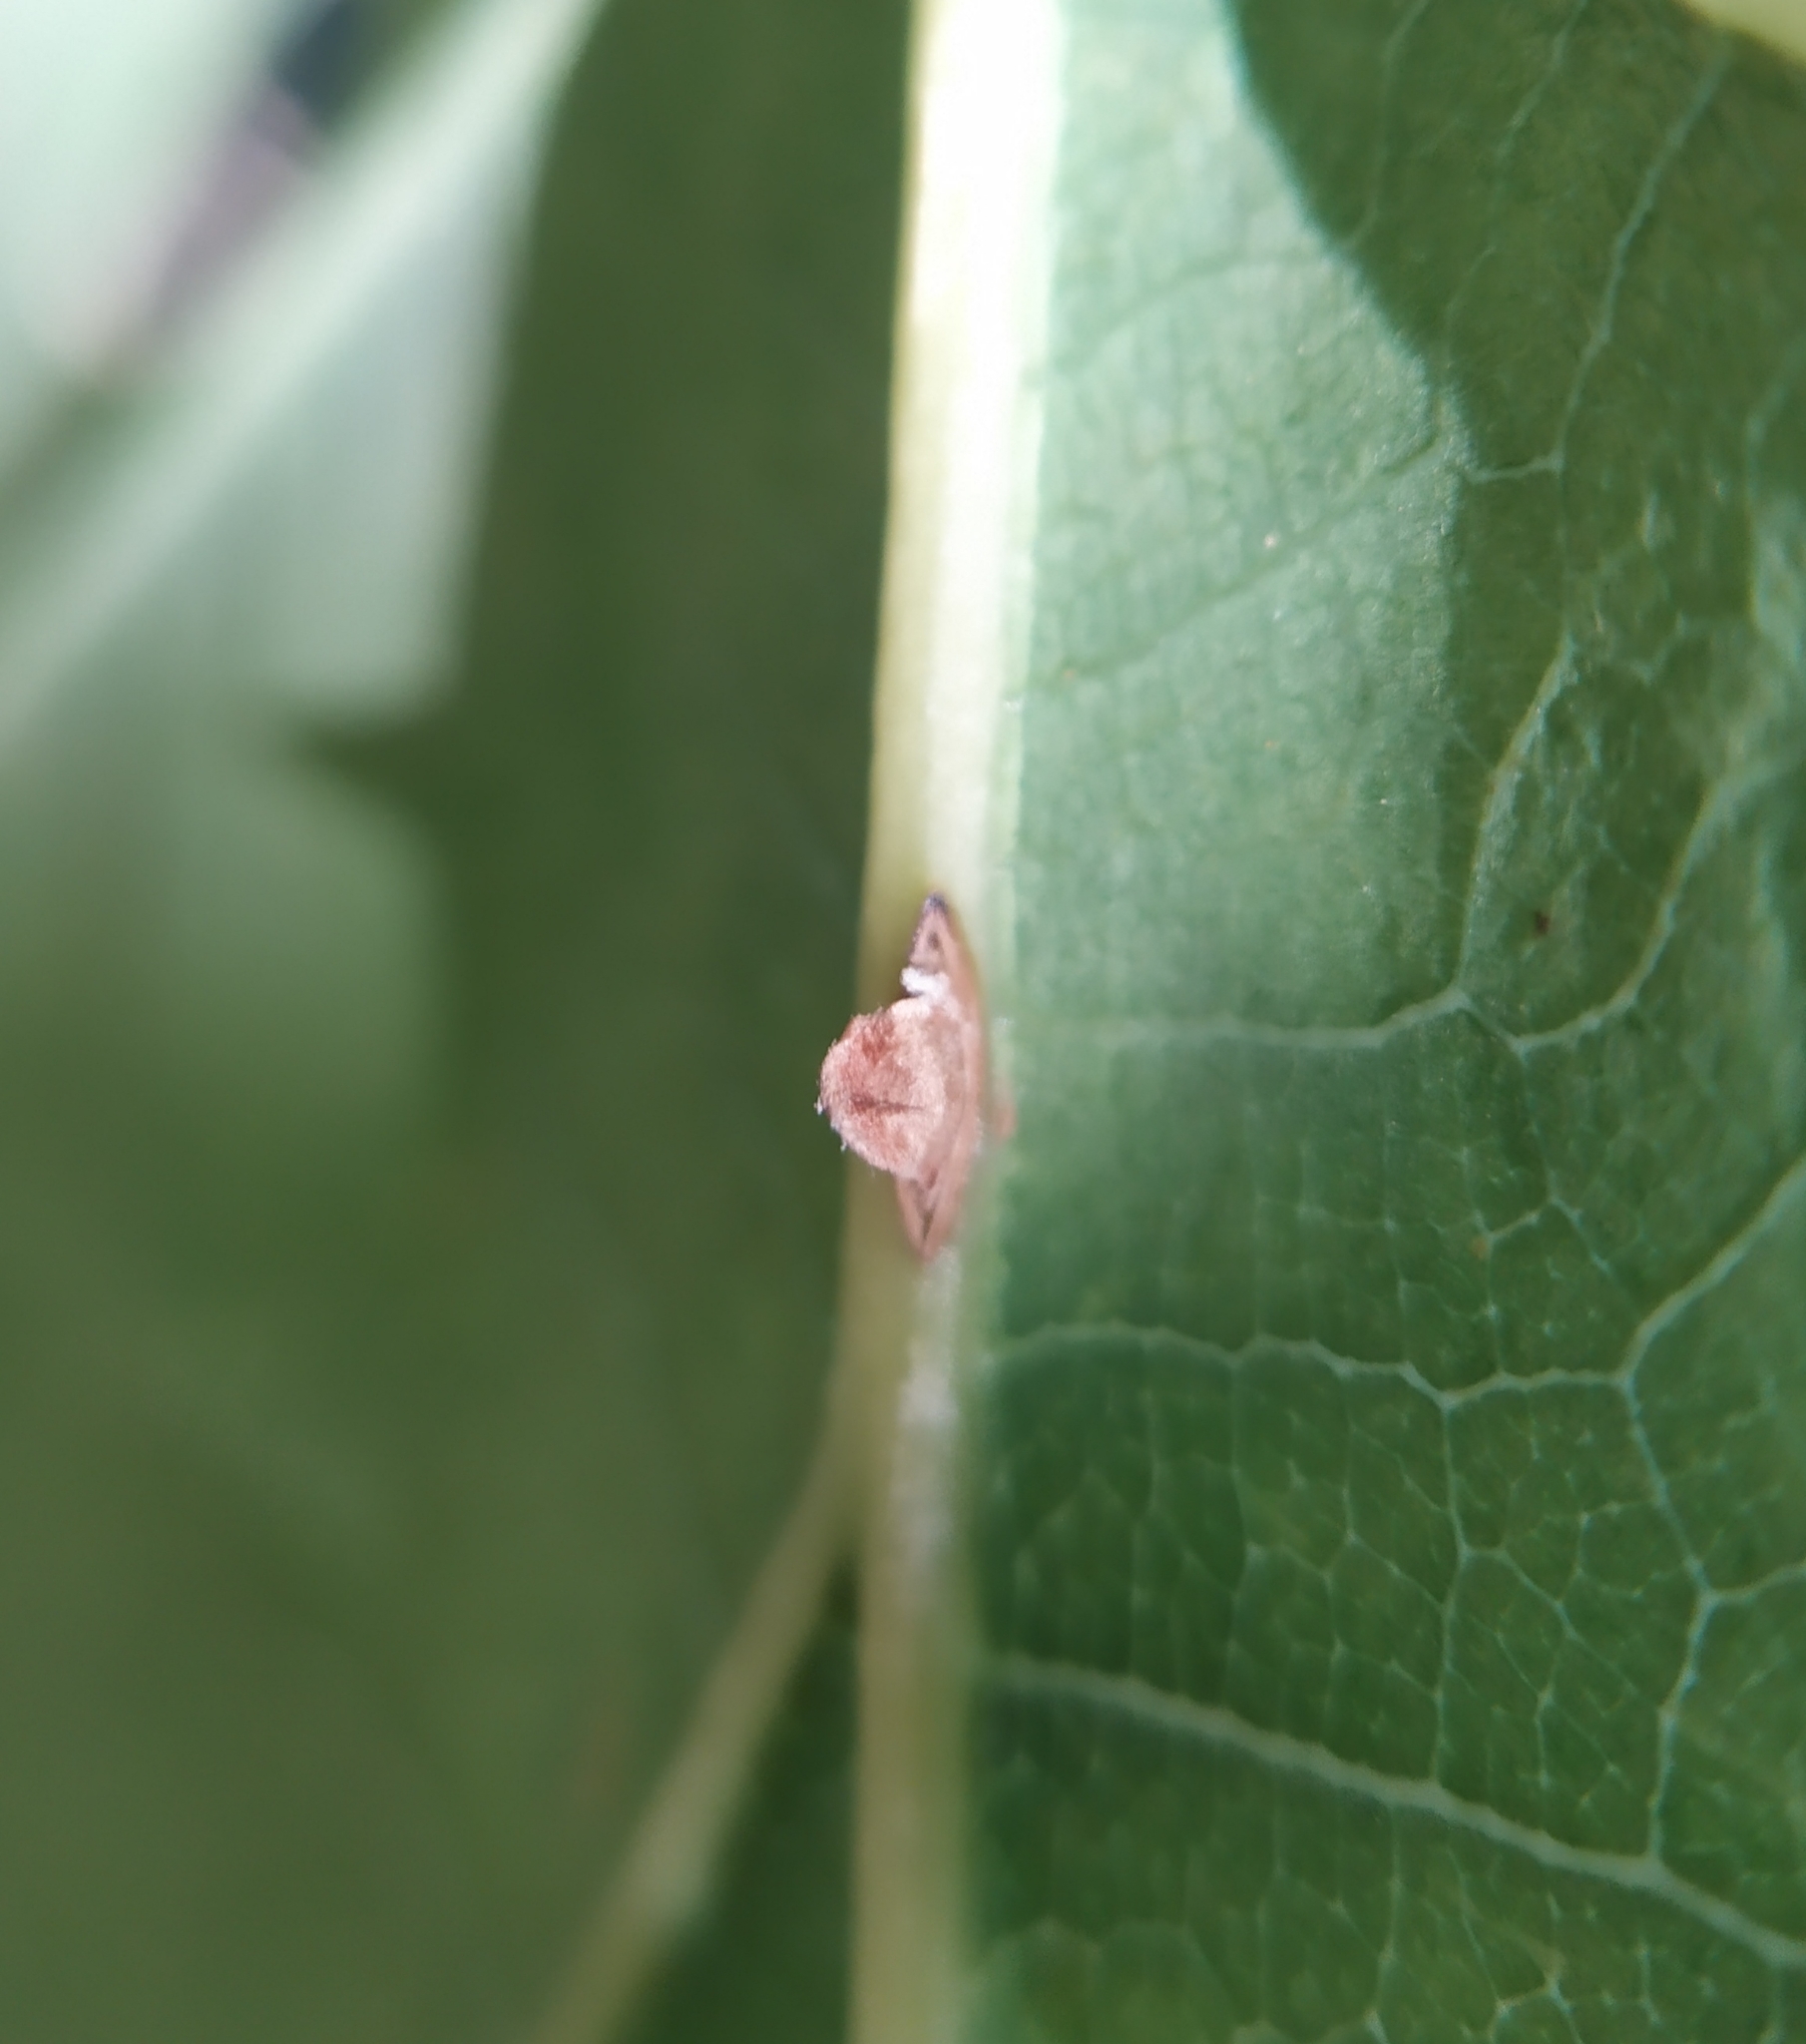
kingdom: Animalia
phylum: Arthropoda
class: Insecta
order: Hymenoptera
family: Cynipidae
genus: Neuroterus
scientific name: Neuroterus anthracinus
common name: Oyster gall
